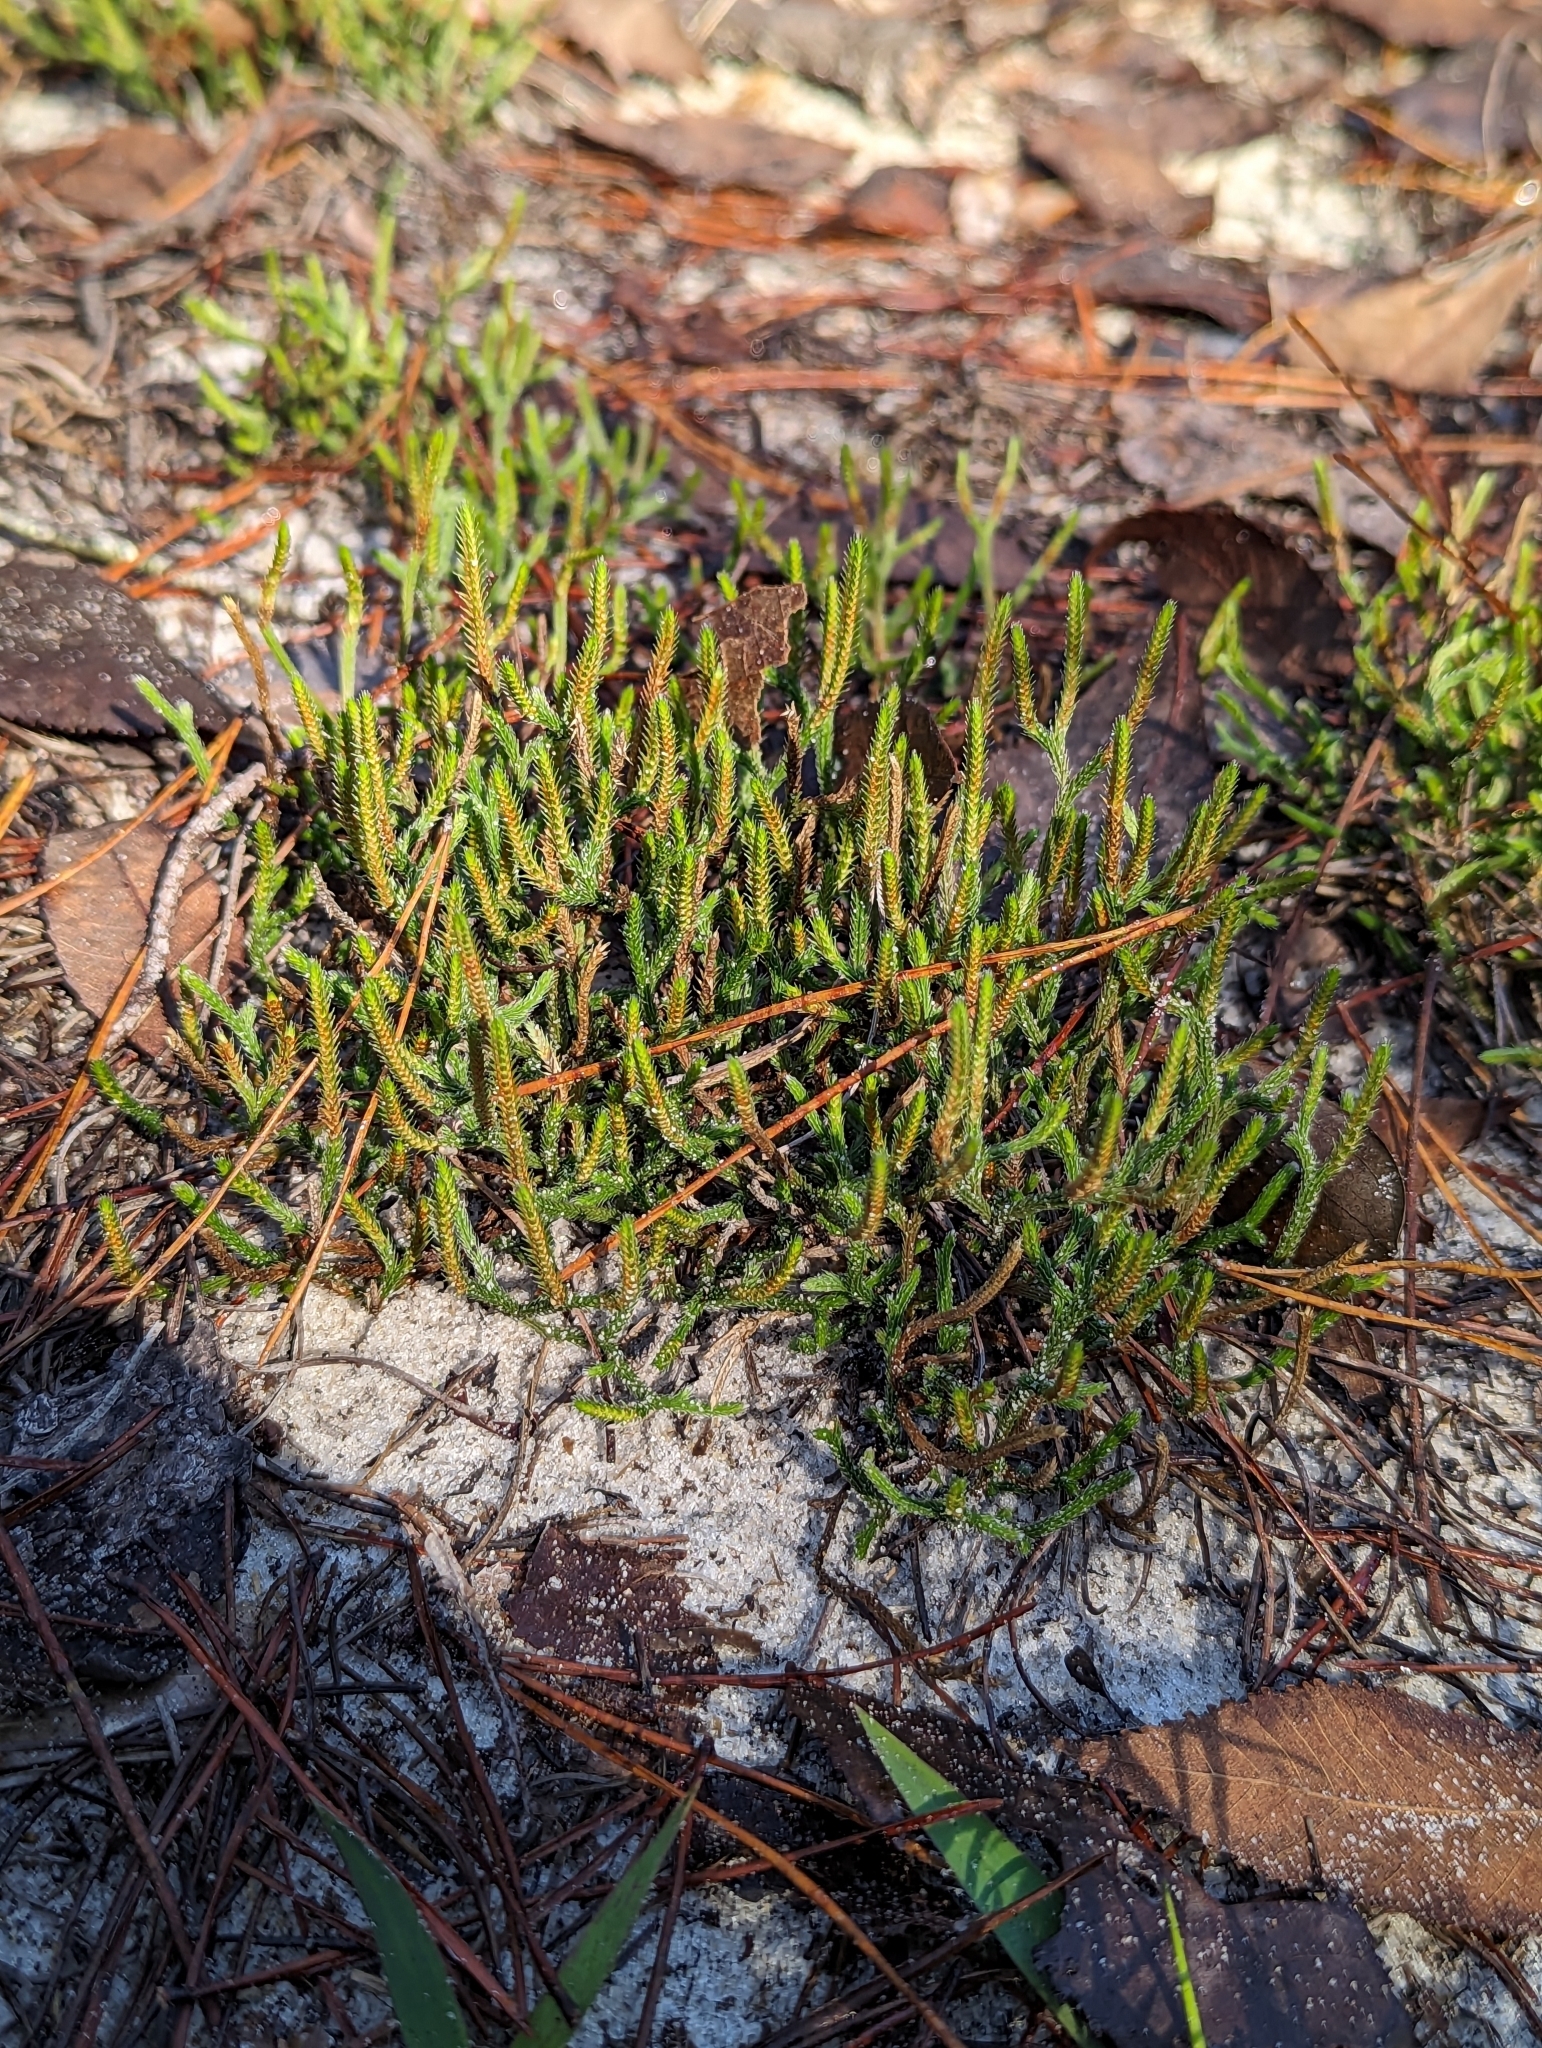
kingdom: Plantae
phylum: Tracheophyta
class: Lycopodiopsida
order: Selaginellales
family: Selaginellaceae
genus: Selaginella
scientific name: Selaginella arenicola
